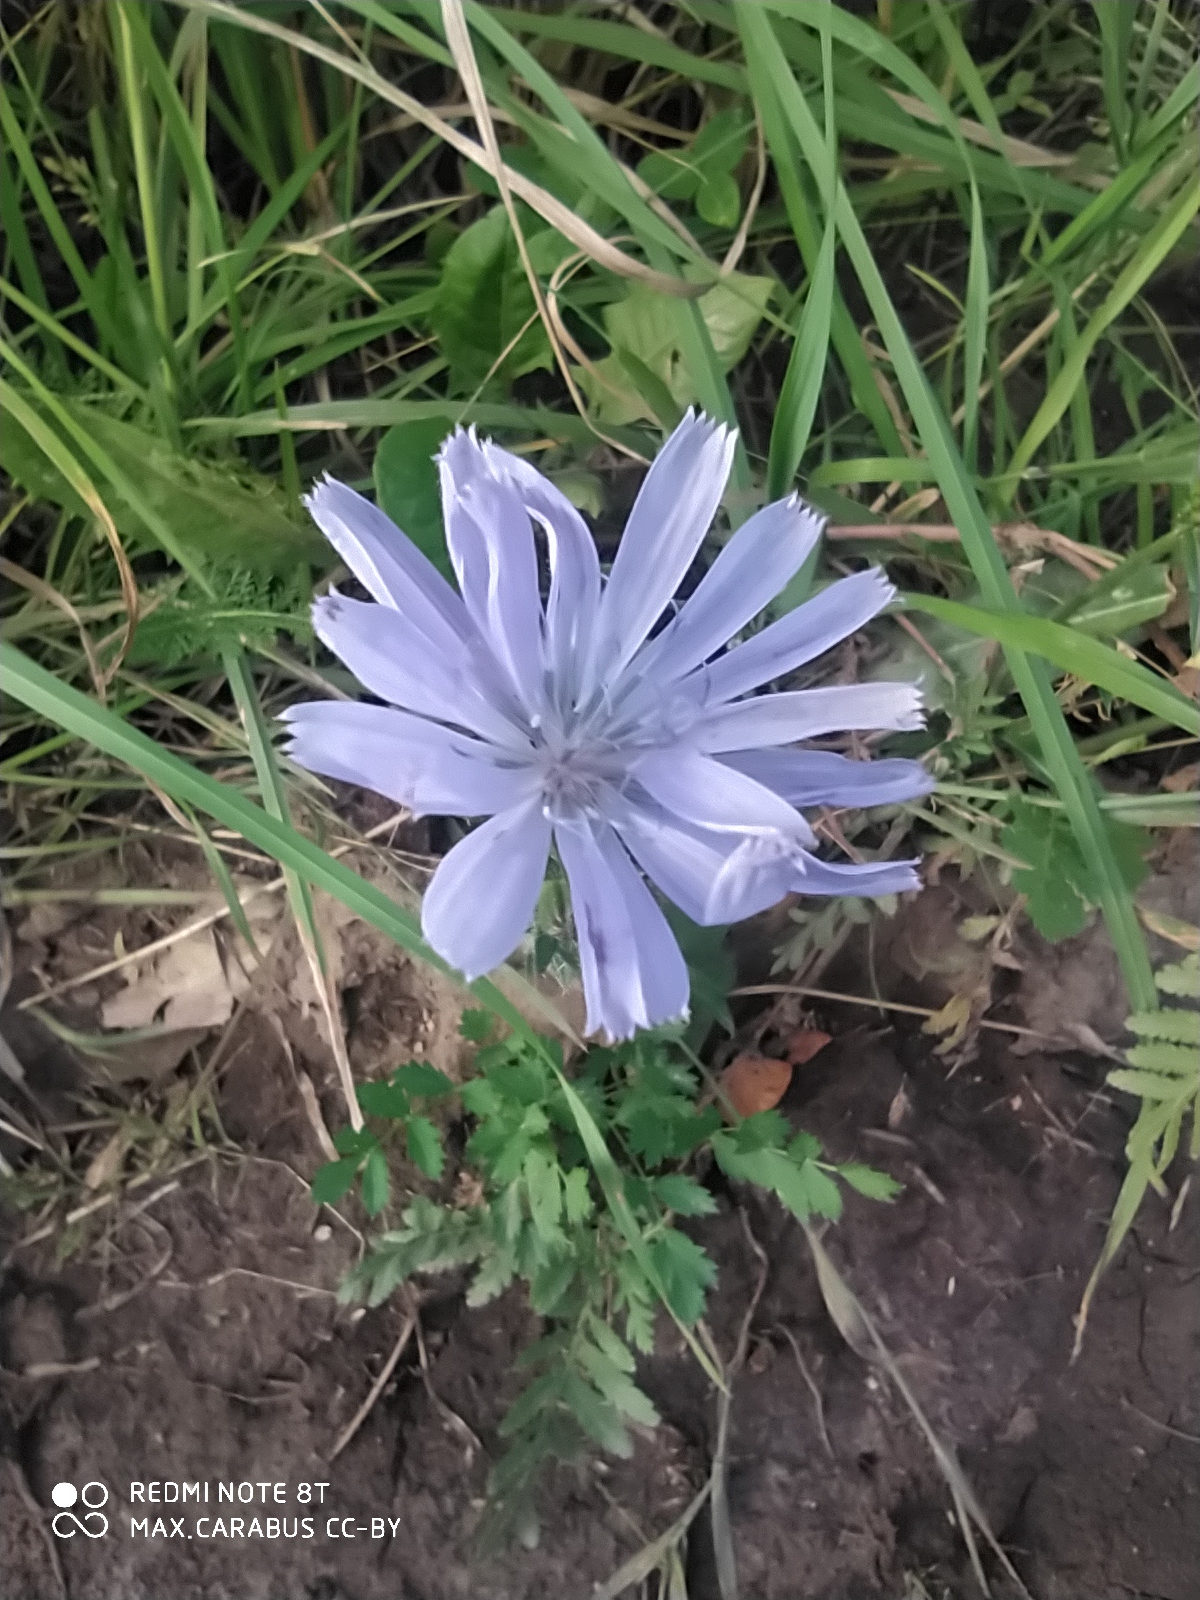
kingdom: Plantae
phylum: Tracheophyta
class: Magnoliopsida
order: Asterales
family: Asteraceae
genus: Cichorium
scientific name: Cichorium intybus
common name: Chicory
